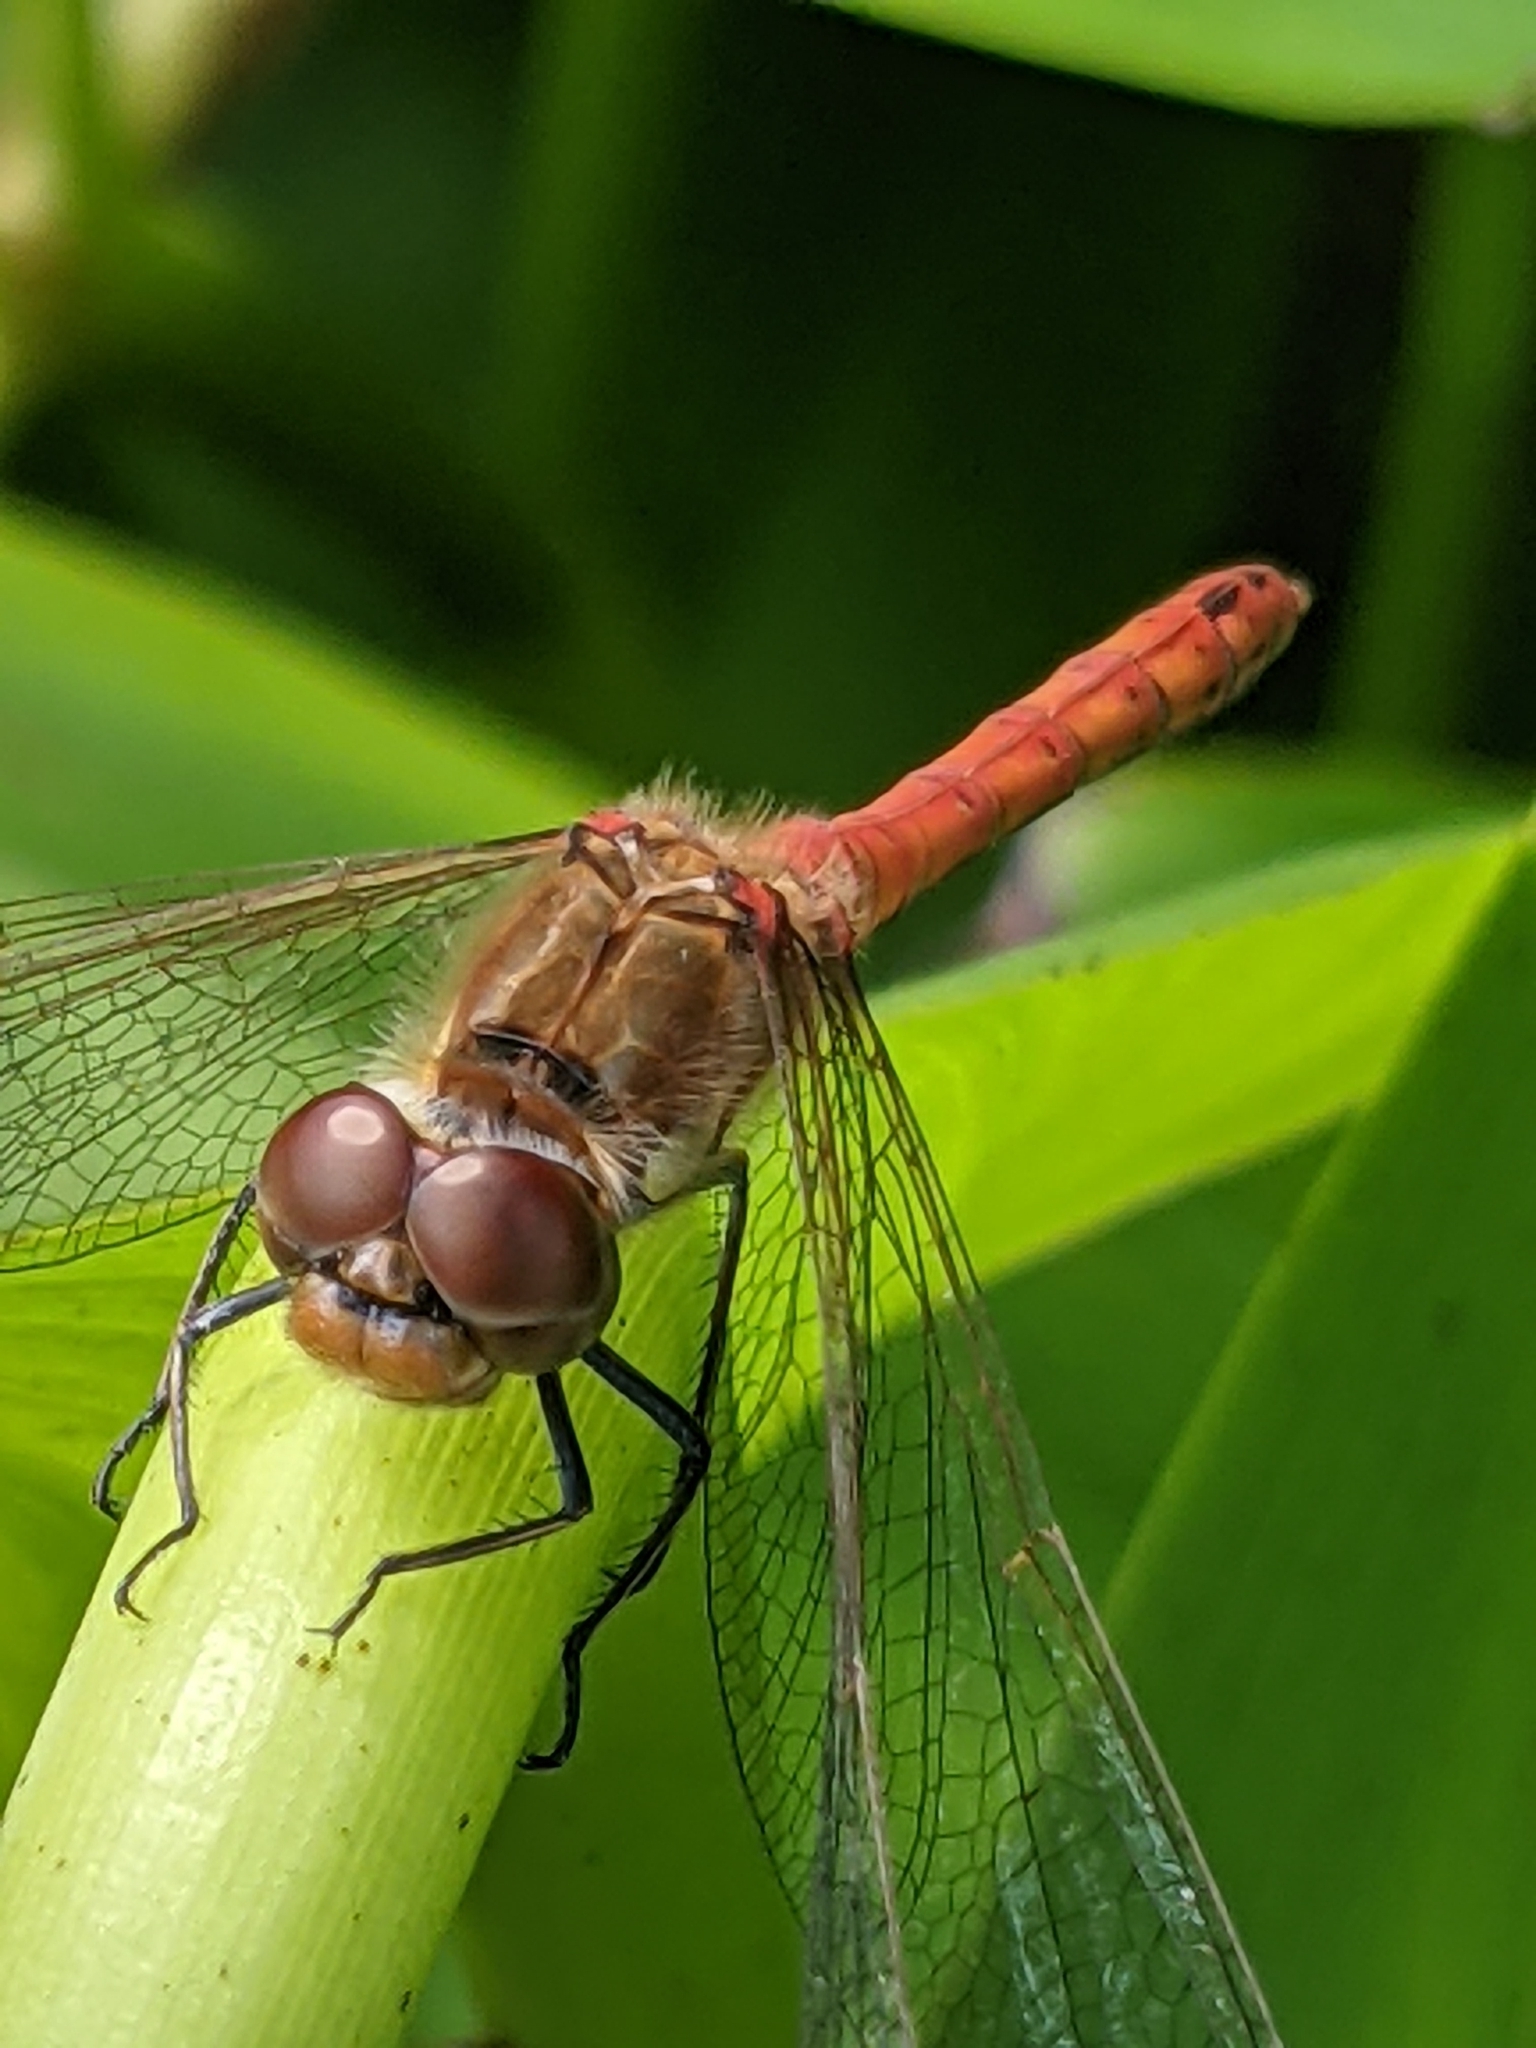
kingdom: Animalia
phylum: Arthropoda
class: Insecta
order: Odonata
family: Libellulidae
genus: Sympetrum
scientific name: Sympetrum striolatum
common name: Common darter
